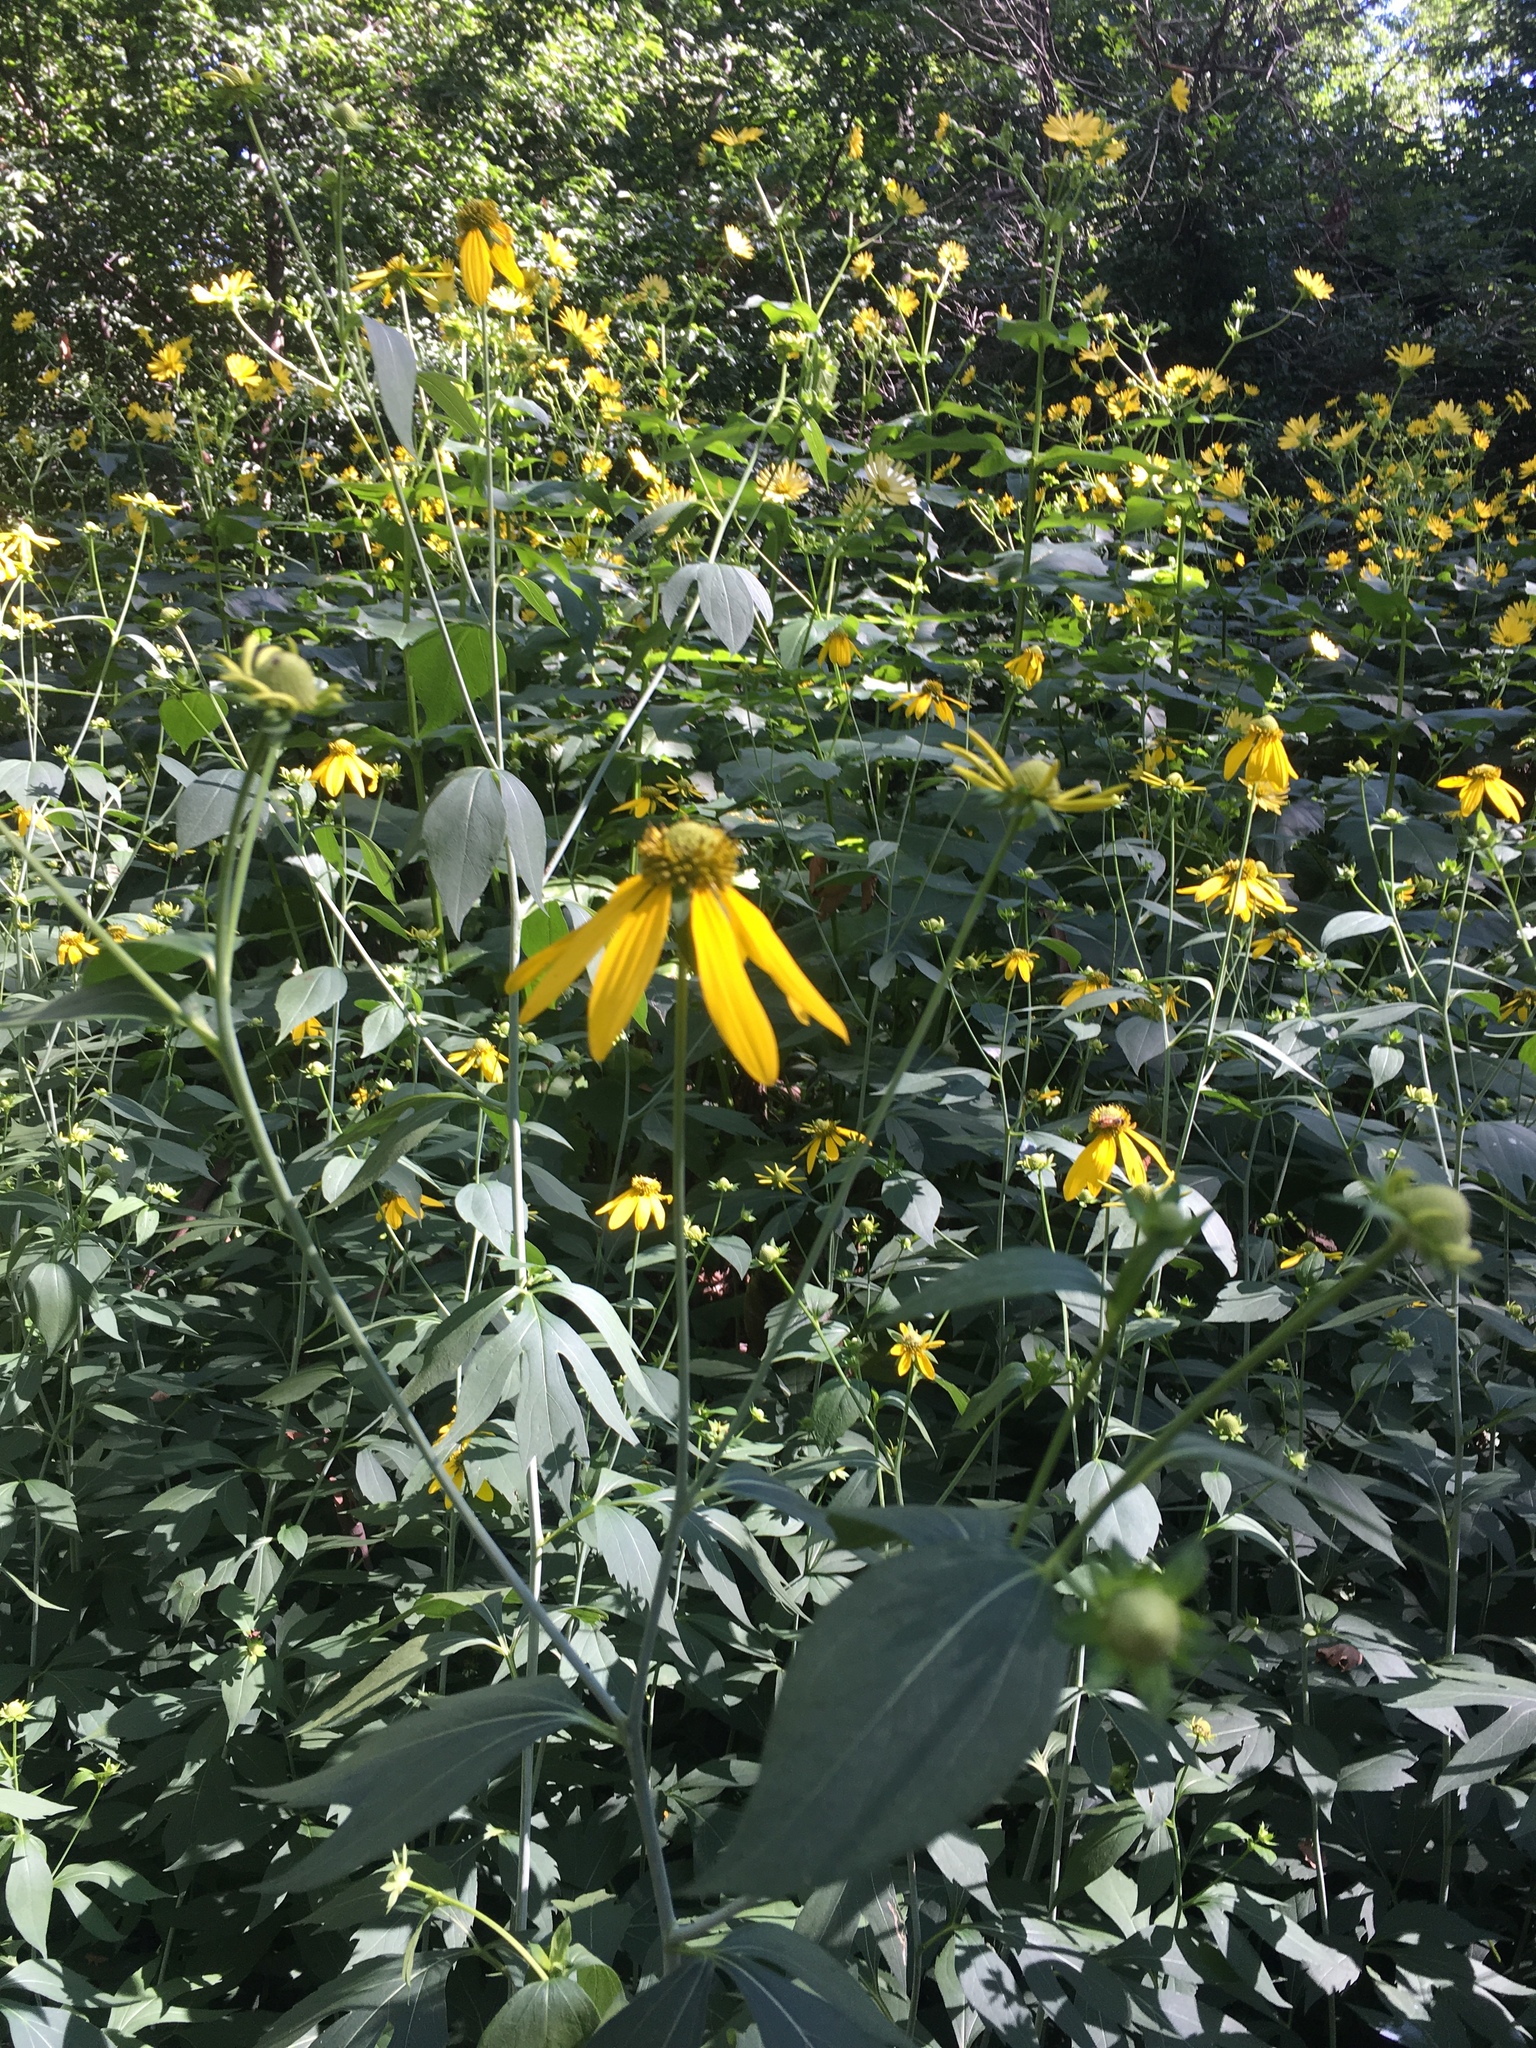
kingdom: Plantae
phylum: Tracheophyta
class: Magnoliopsida
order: Asterales
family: Asteraceae
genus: Rudbeckia
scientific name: Rudbeckia laciniata
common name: Coneflower
